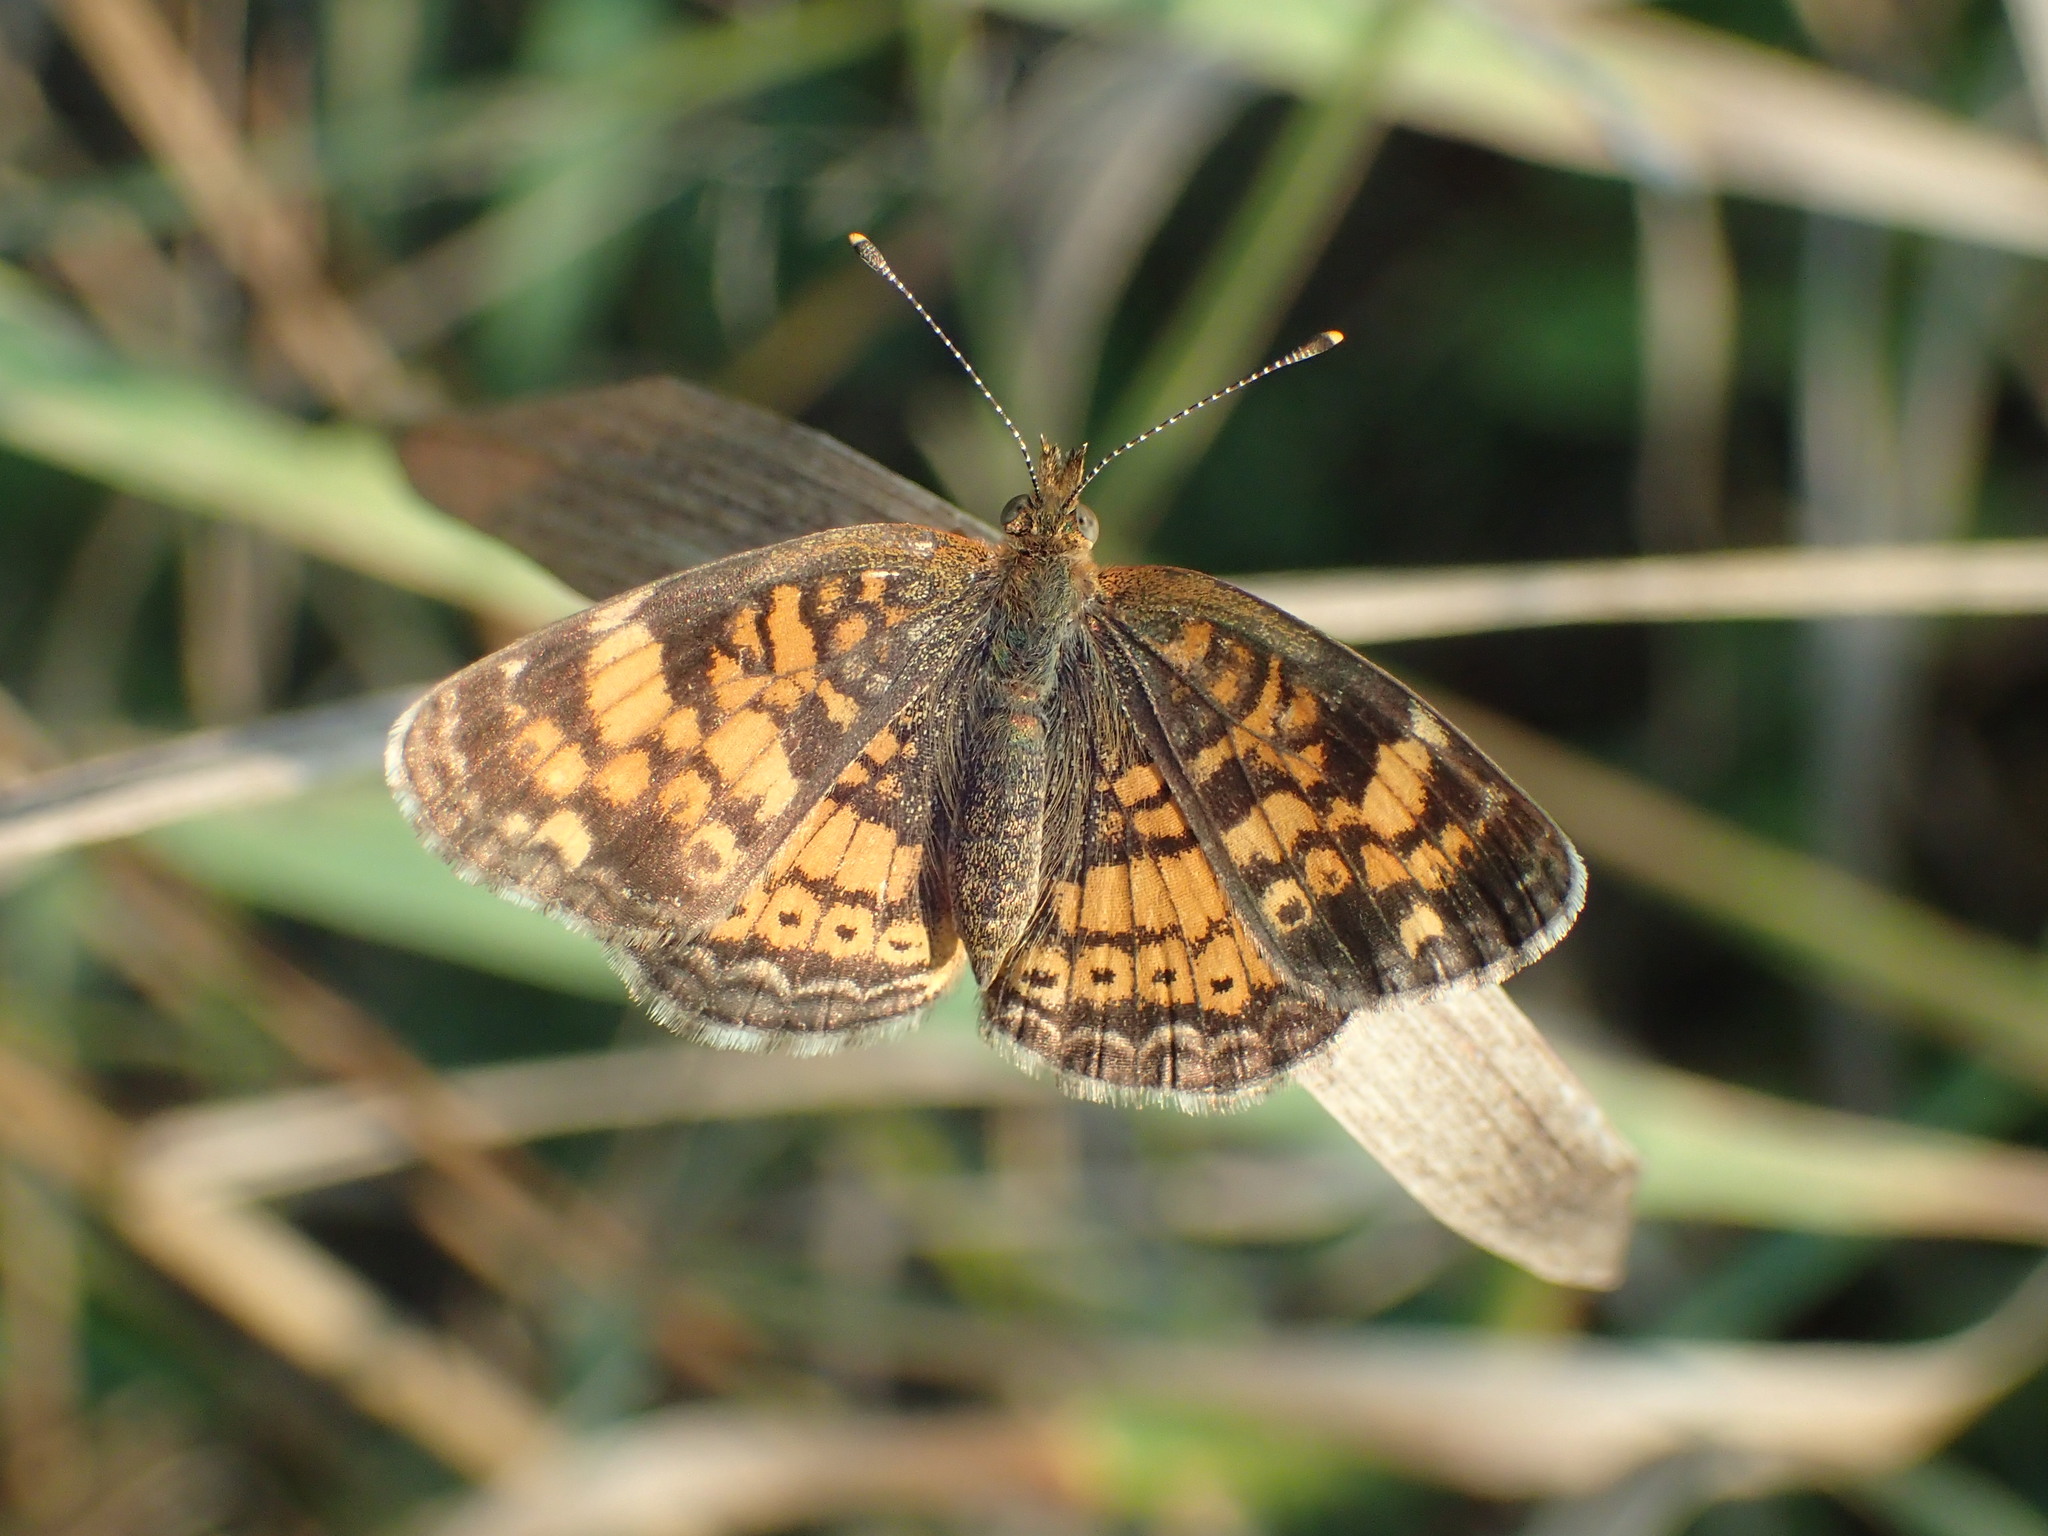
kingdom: Animalia
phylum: Arthropoda
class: Insecta
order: Lepidoptera
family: Nymphalidae
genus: Phyciodes
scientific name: Phyciodes tharos
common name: Pearl crescent
